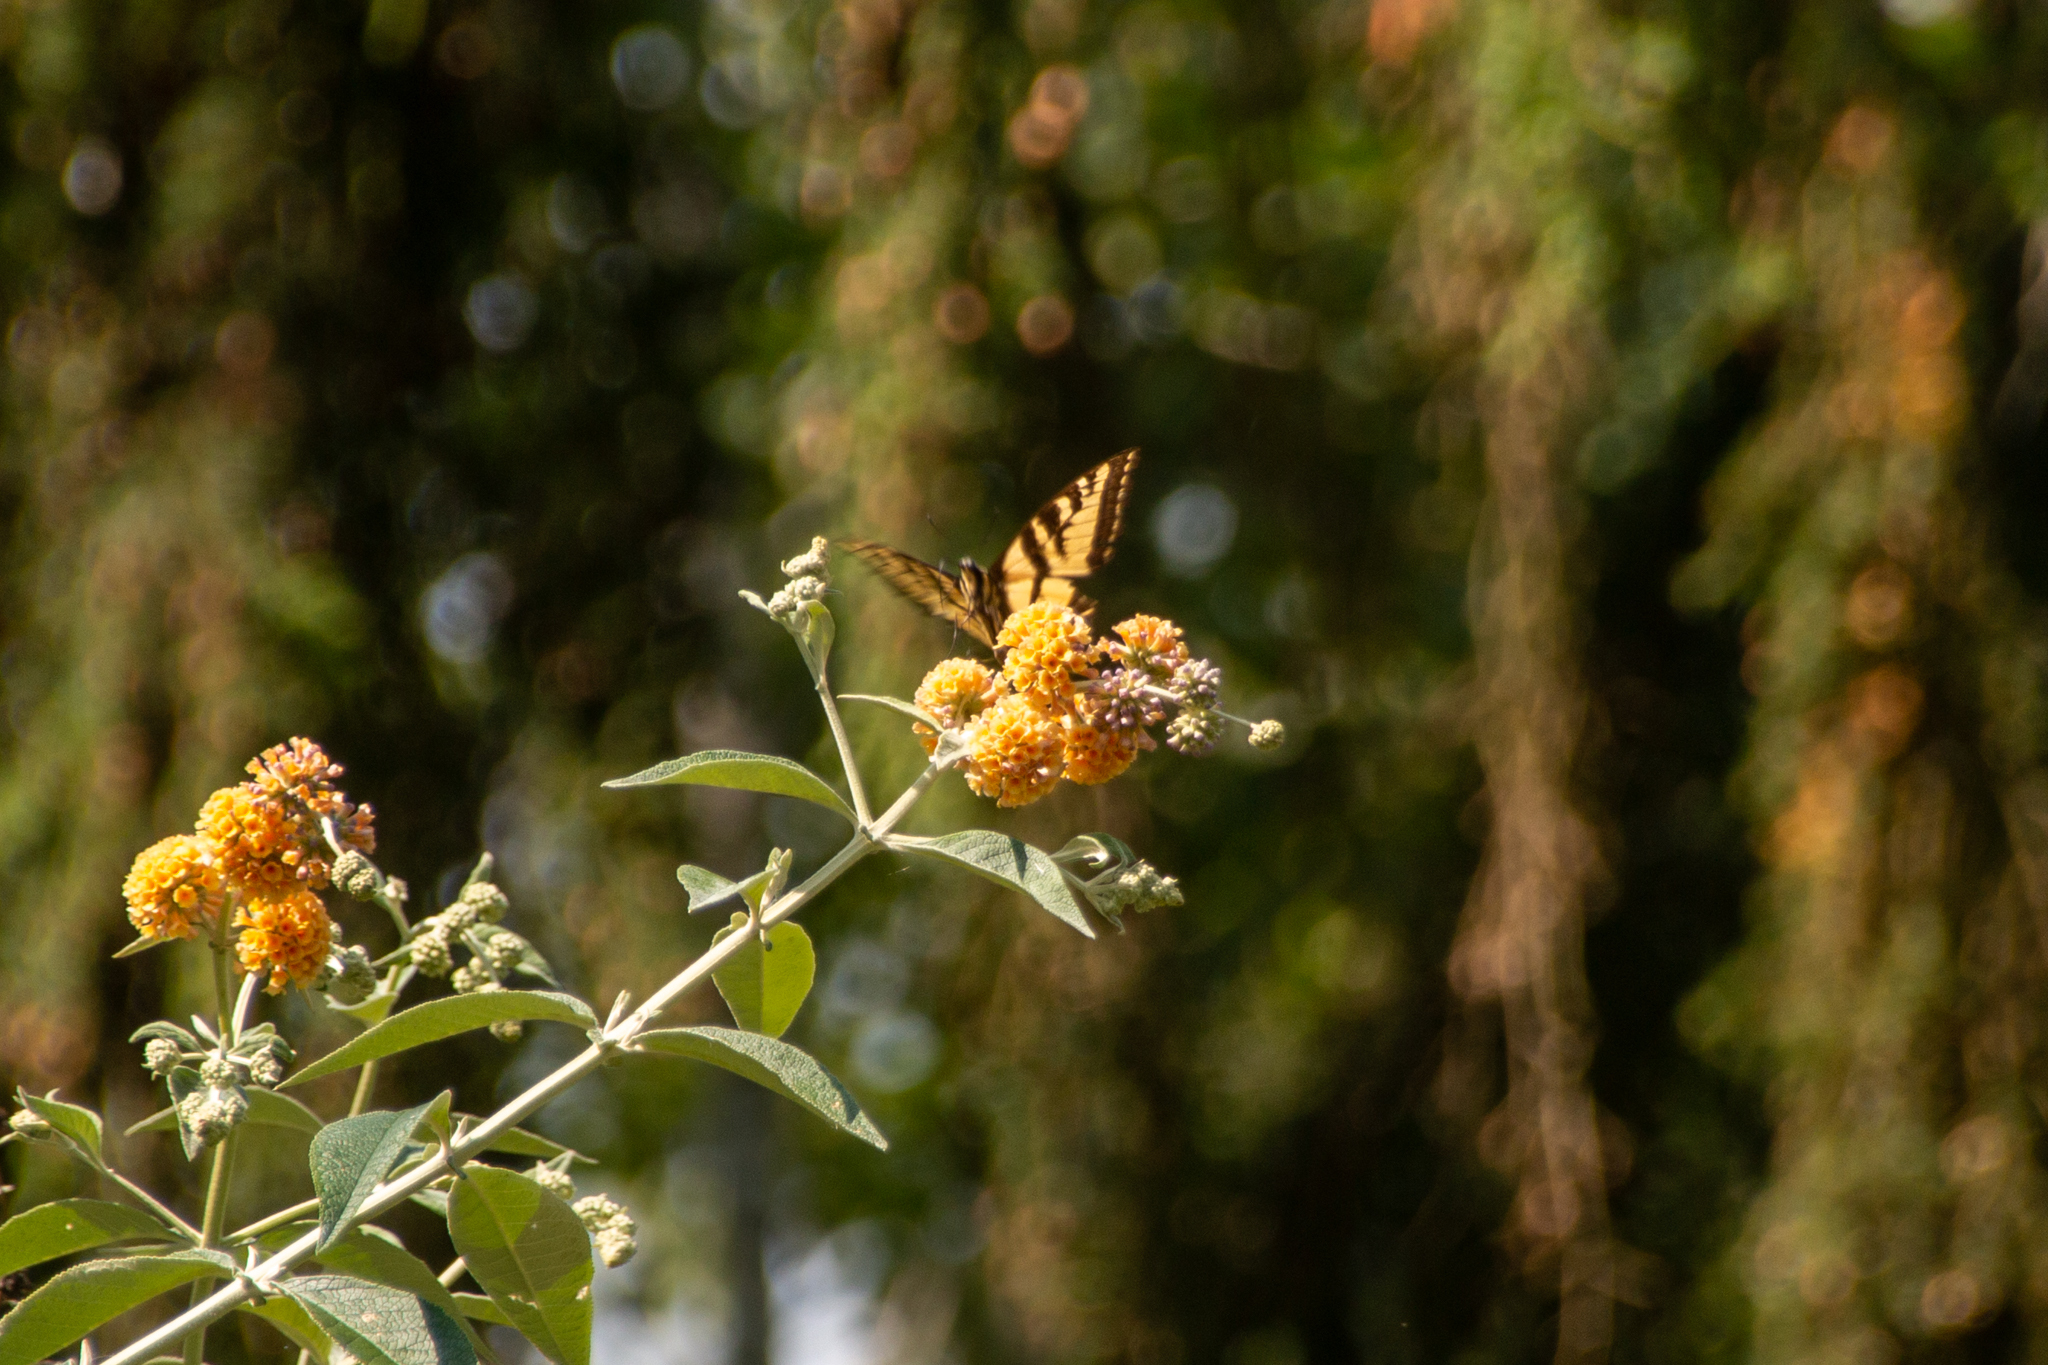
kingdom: Animalia
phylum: Arthropoda
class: Insecta
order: Lepidoptera
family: Papilionidae
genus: Papilio
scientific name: Papilio rutulus
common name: Western tiger swallowtail
